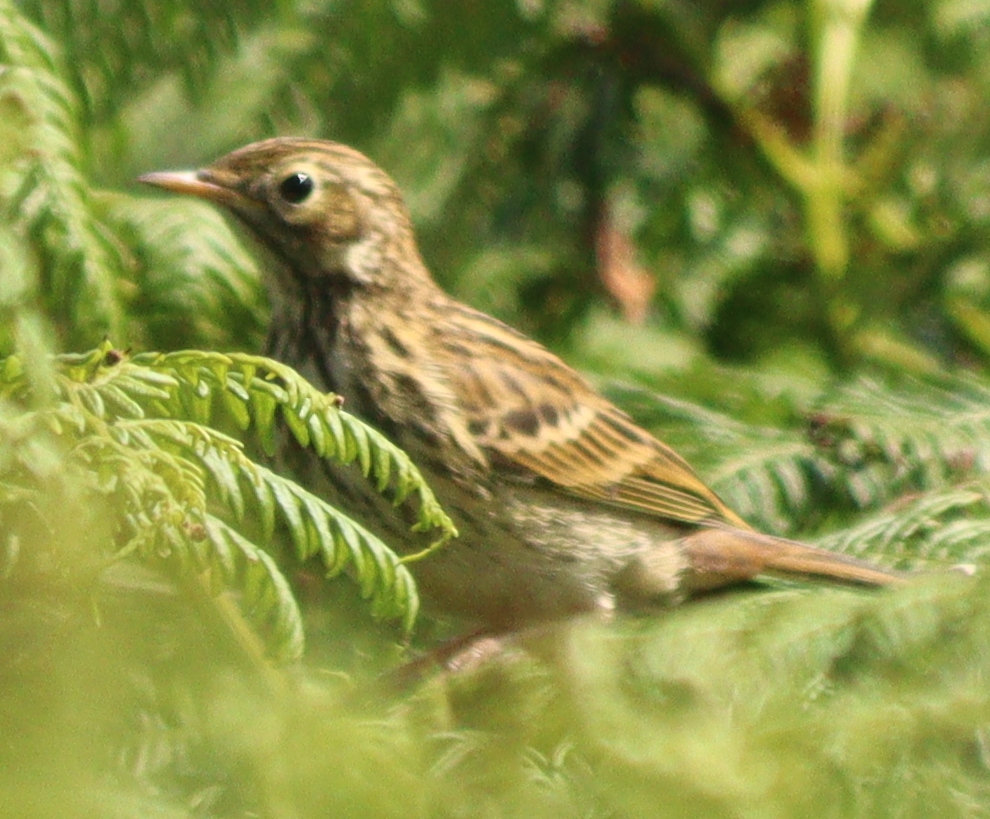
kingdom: Animalia
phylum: Chordata
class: Aves
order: Passeriformes
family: Motacillidae
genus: Anthus
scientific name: Anthus pratensis
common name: Meadow pipit
